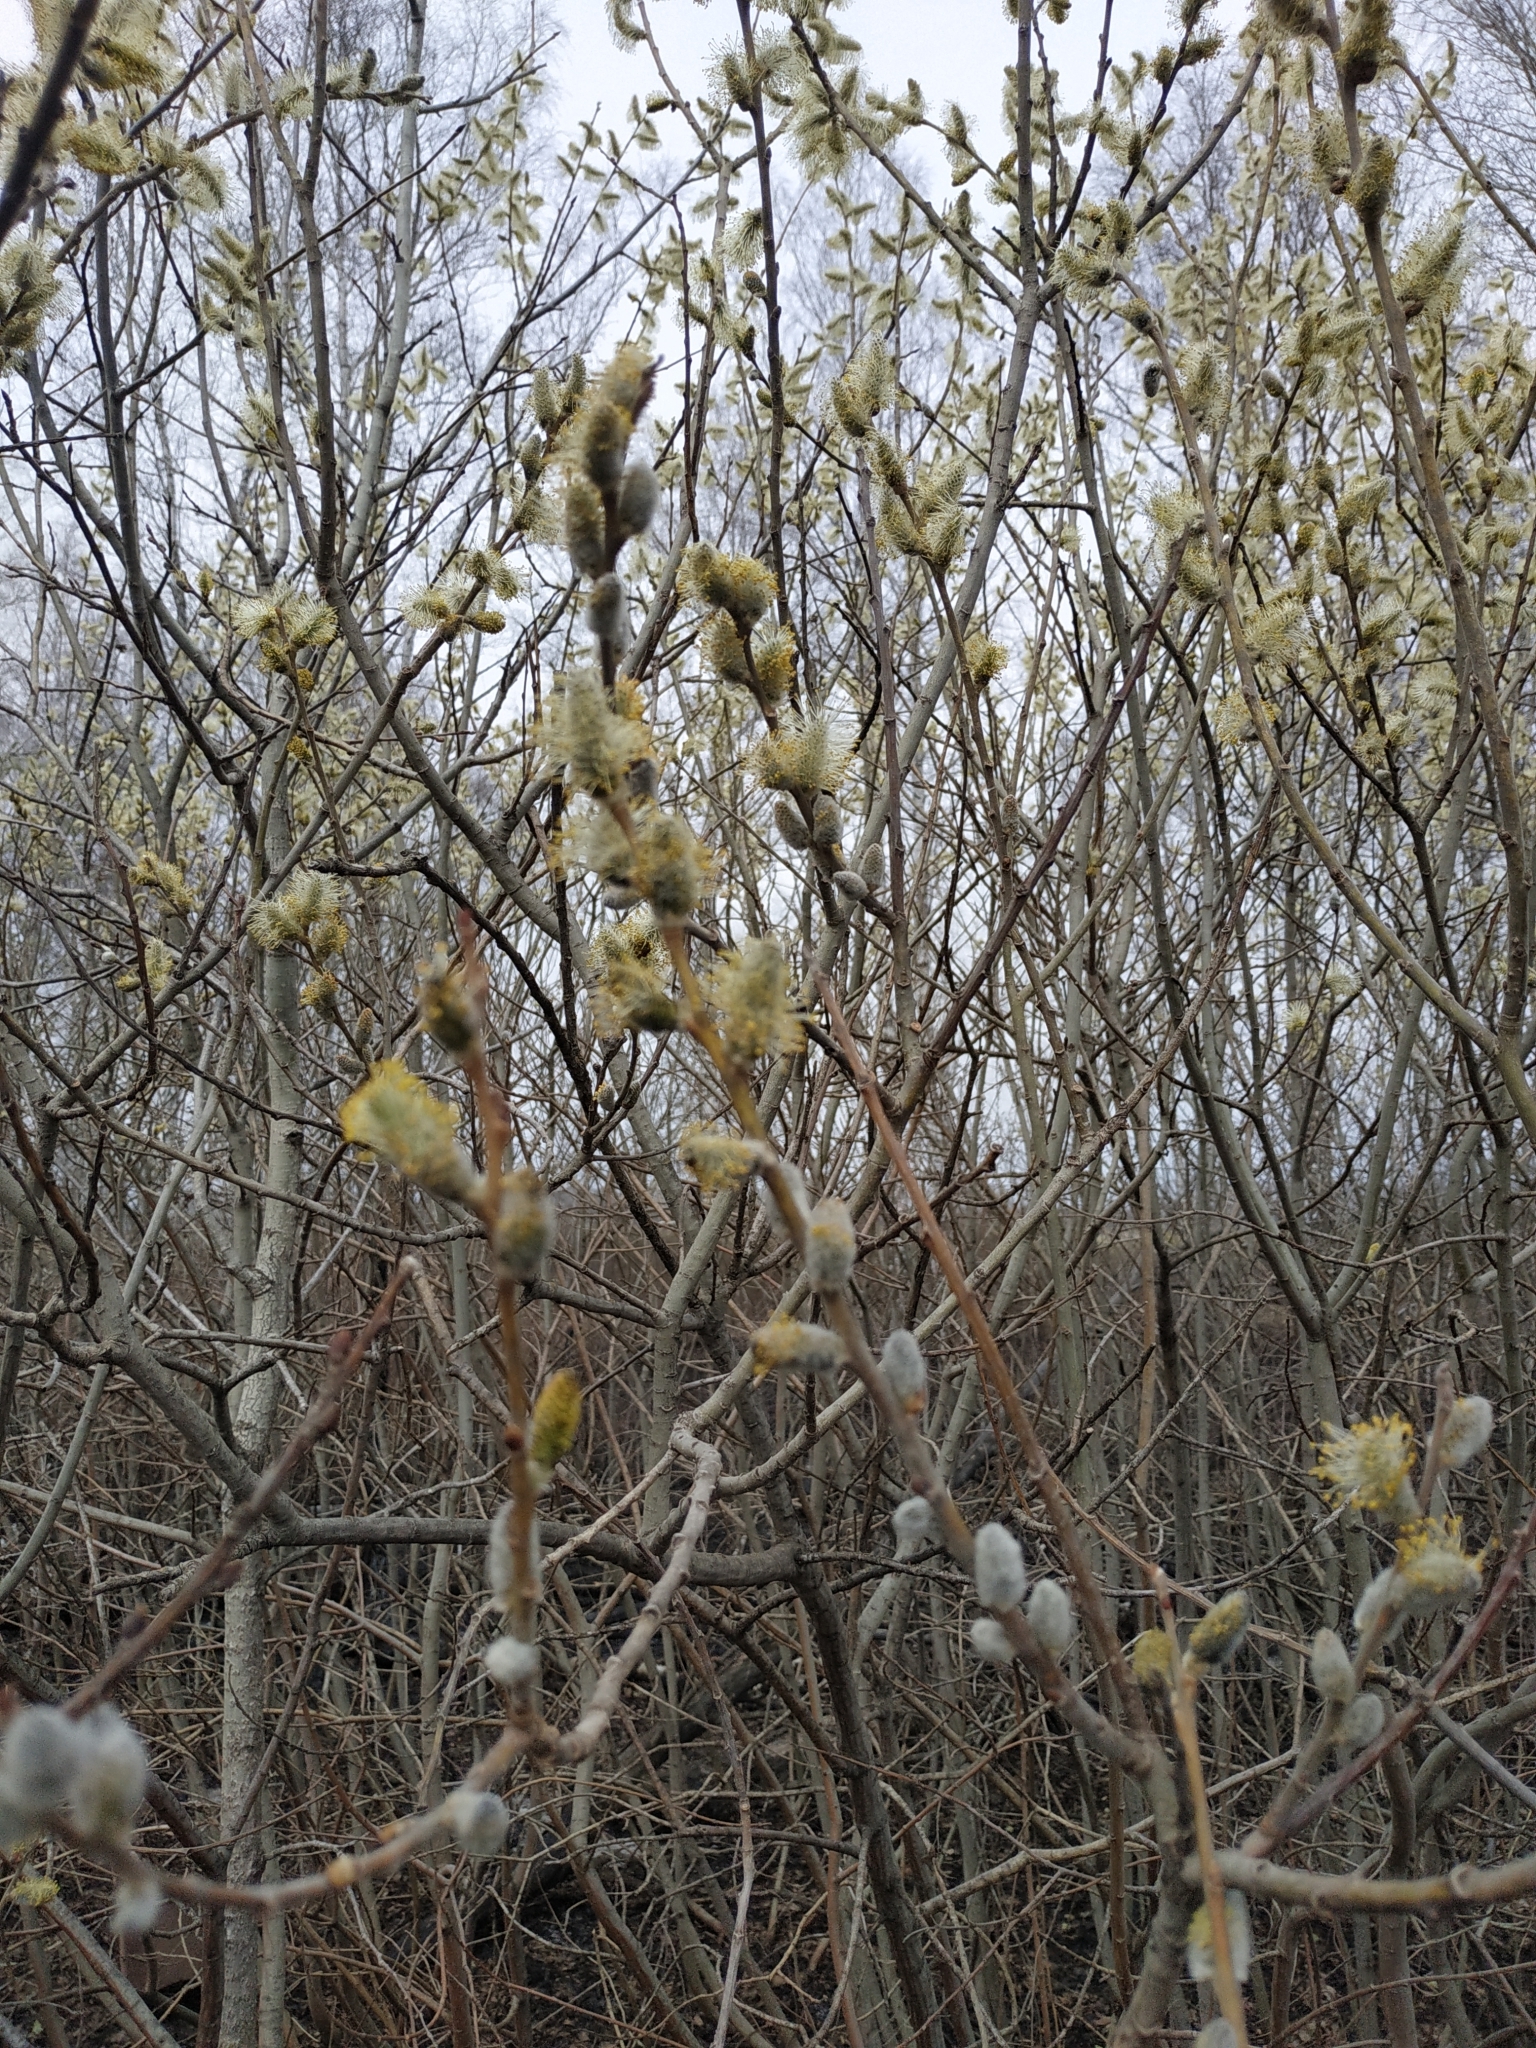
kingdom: Plantae
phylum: Tracheophyta
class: Magnoliopsida
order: Malpighiales
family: Salicaceae
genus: Salix
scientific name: Salix caprea
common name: Goat willow
